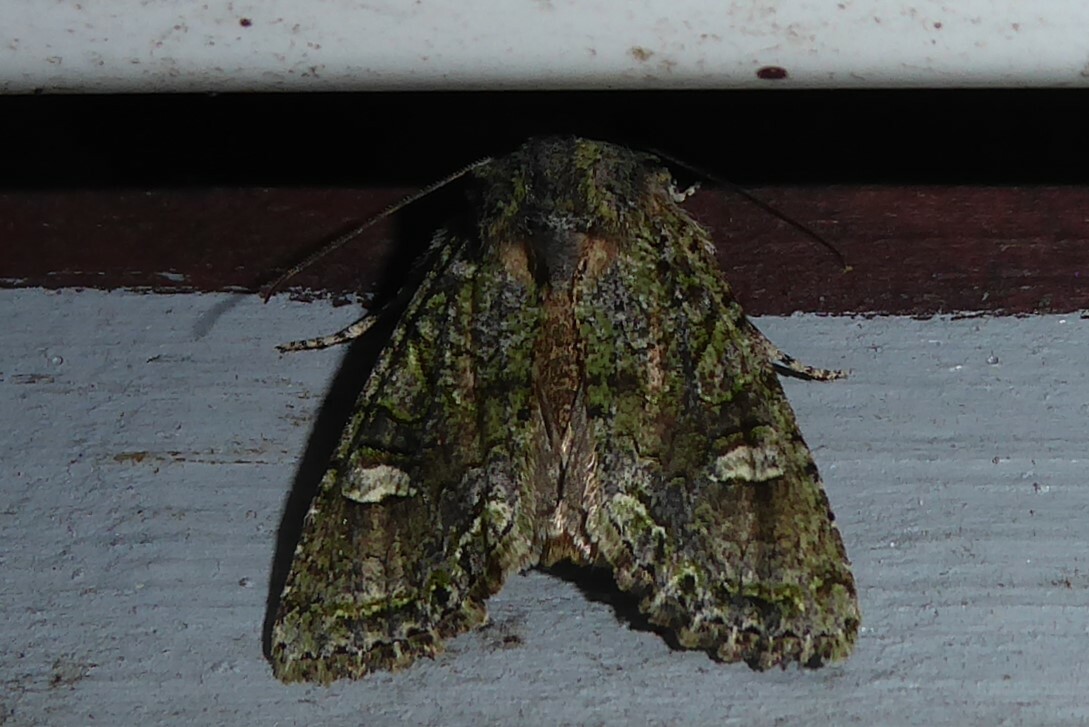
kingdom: Animalia
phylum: Arthropoda
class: Insecta
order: Lepidoptera
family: Noctuidae
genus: Ichneutica
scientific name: Ichneutica
